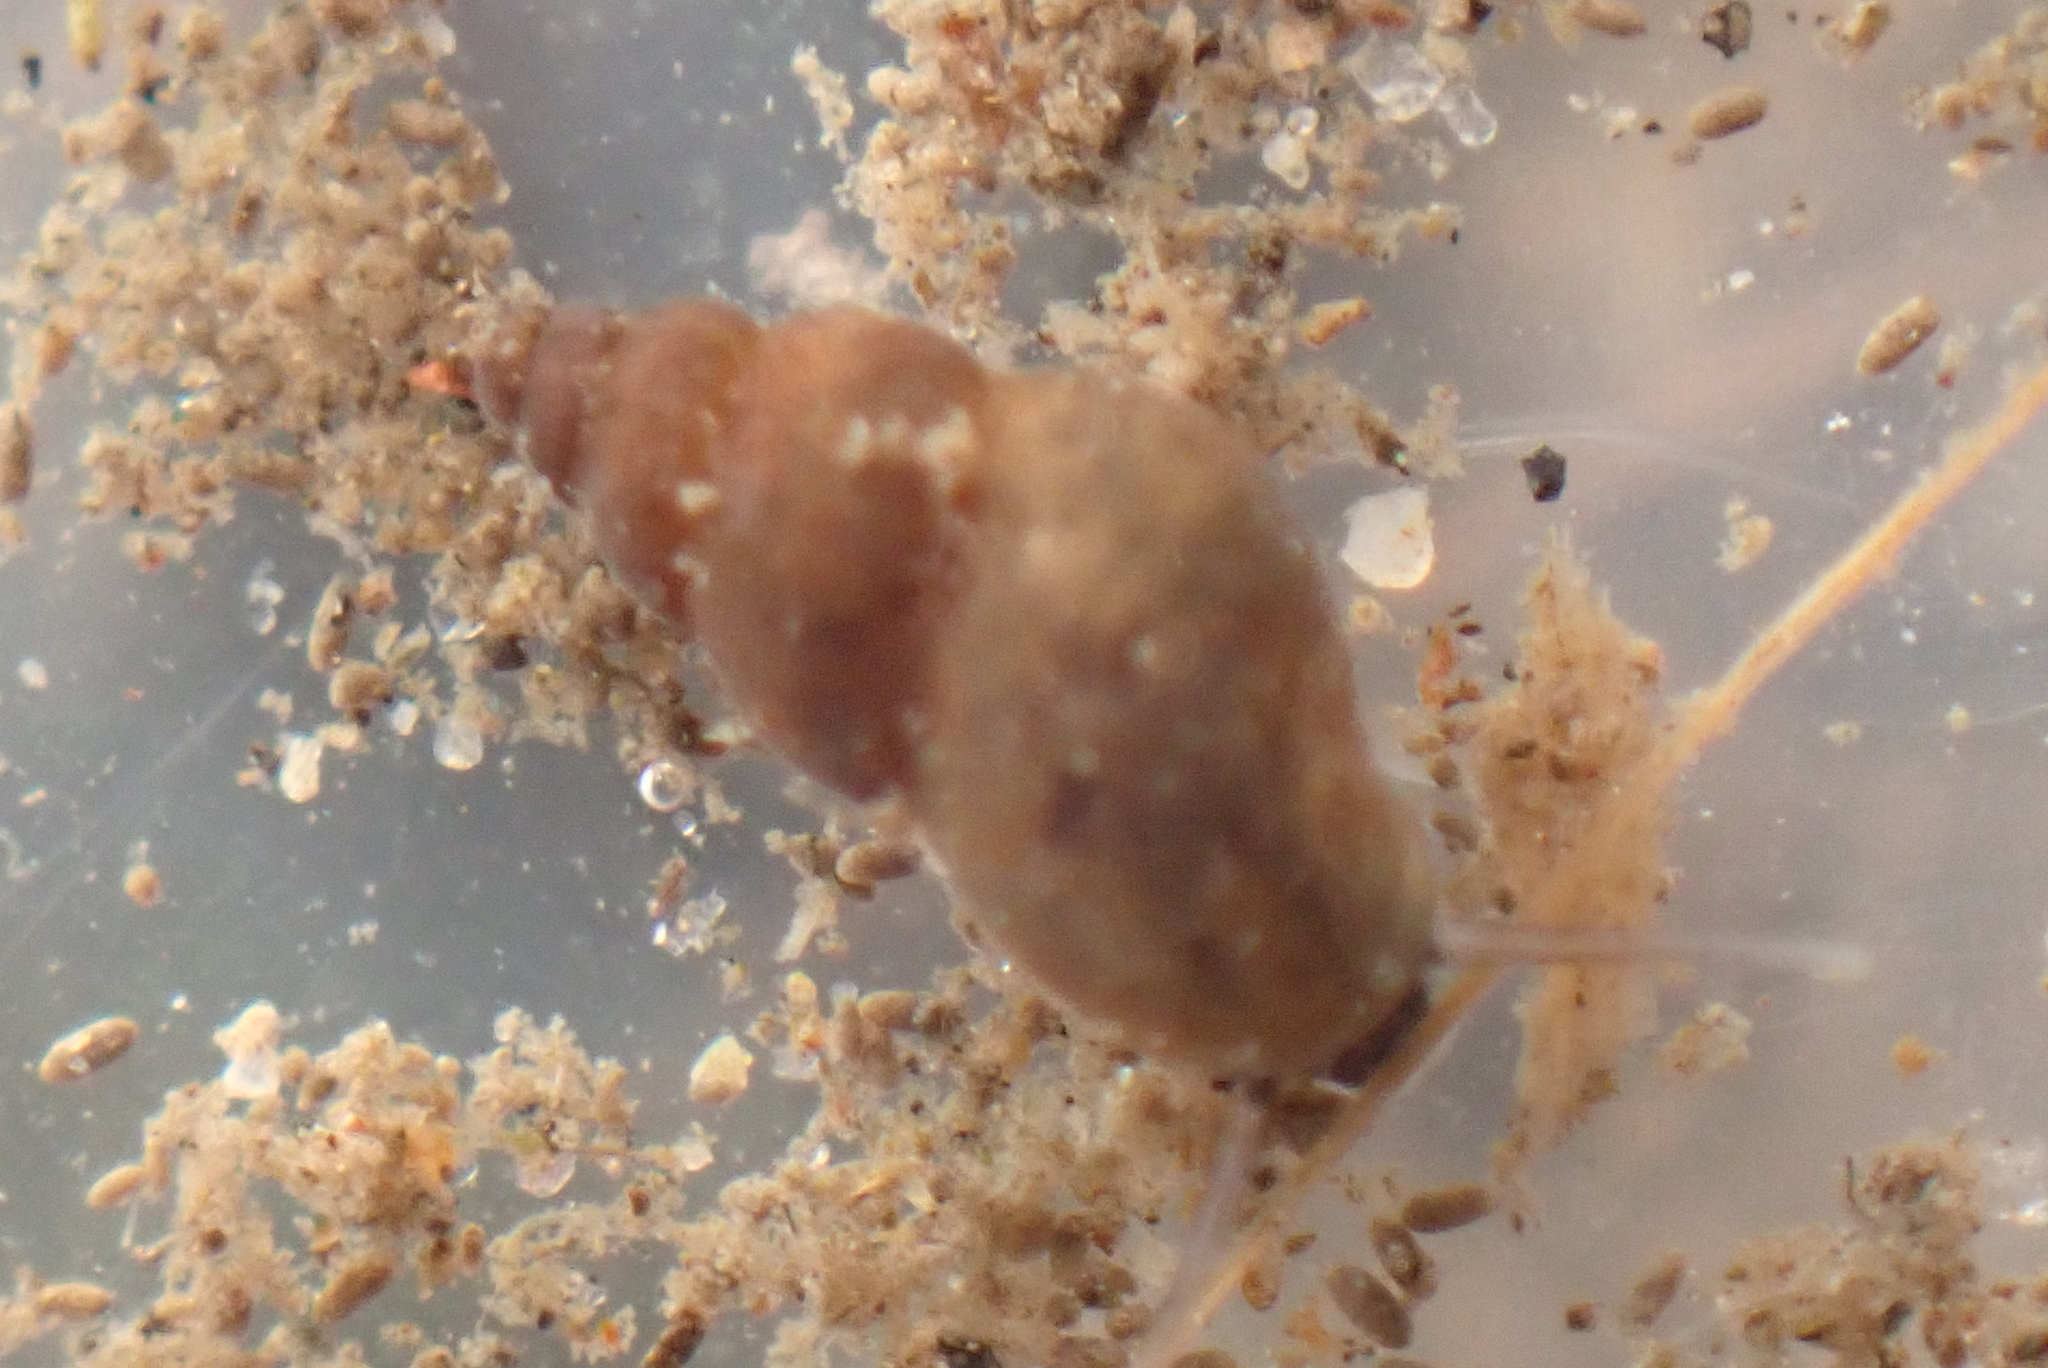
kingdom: Animalia
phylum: Mollusca
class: Gastropoda
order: Littorinimorpha
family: Tateidae
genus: Potamopyrgus
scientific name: Potamopyrgus antipodarum
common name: Jenkins' spire snail
